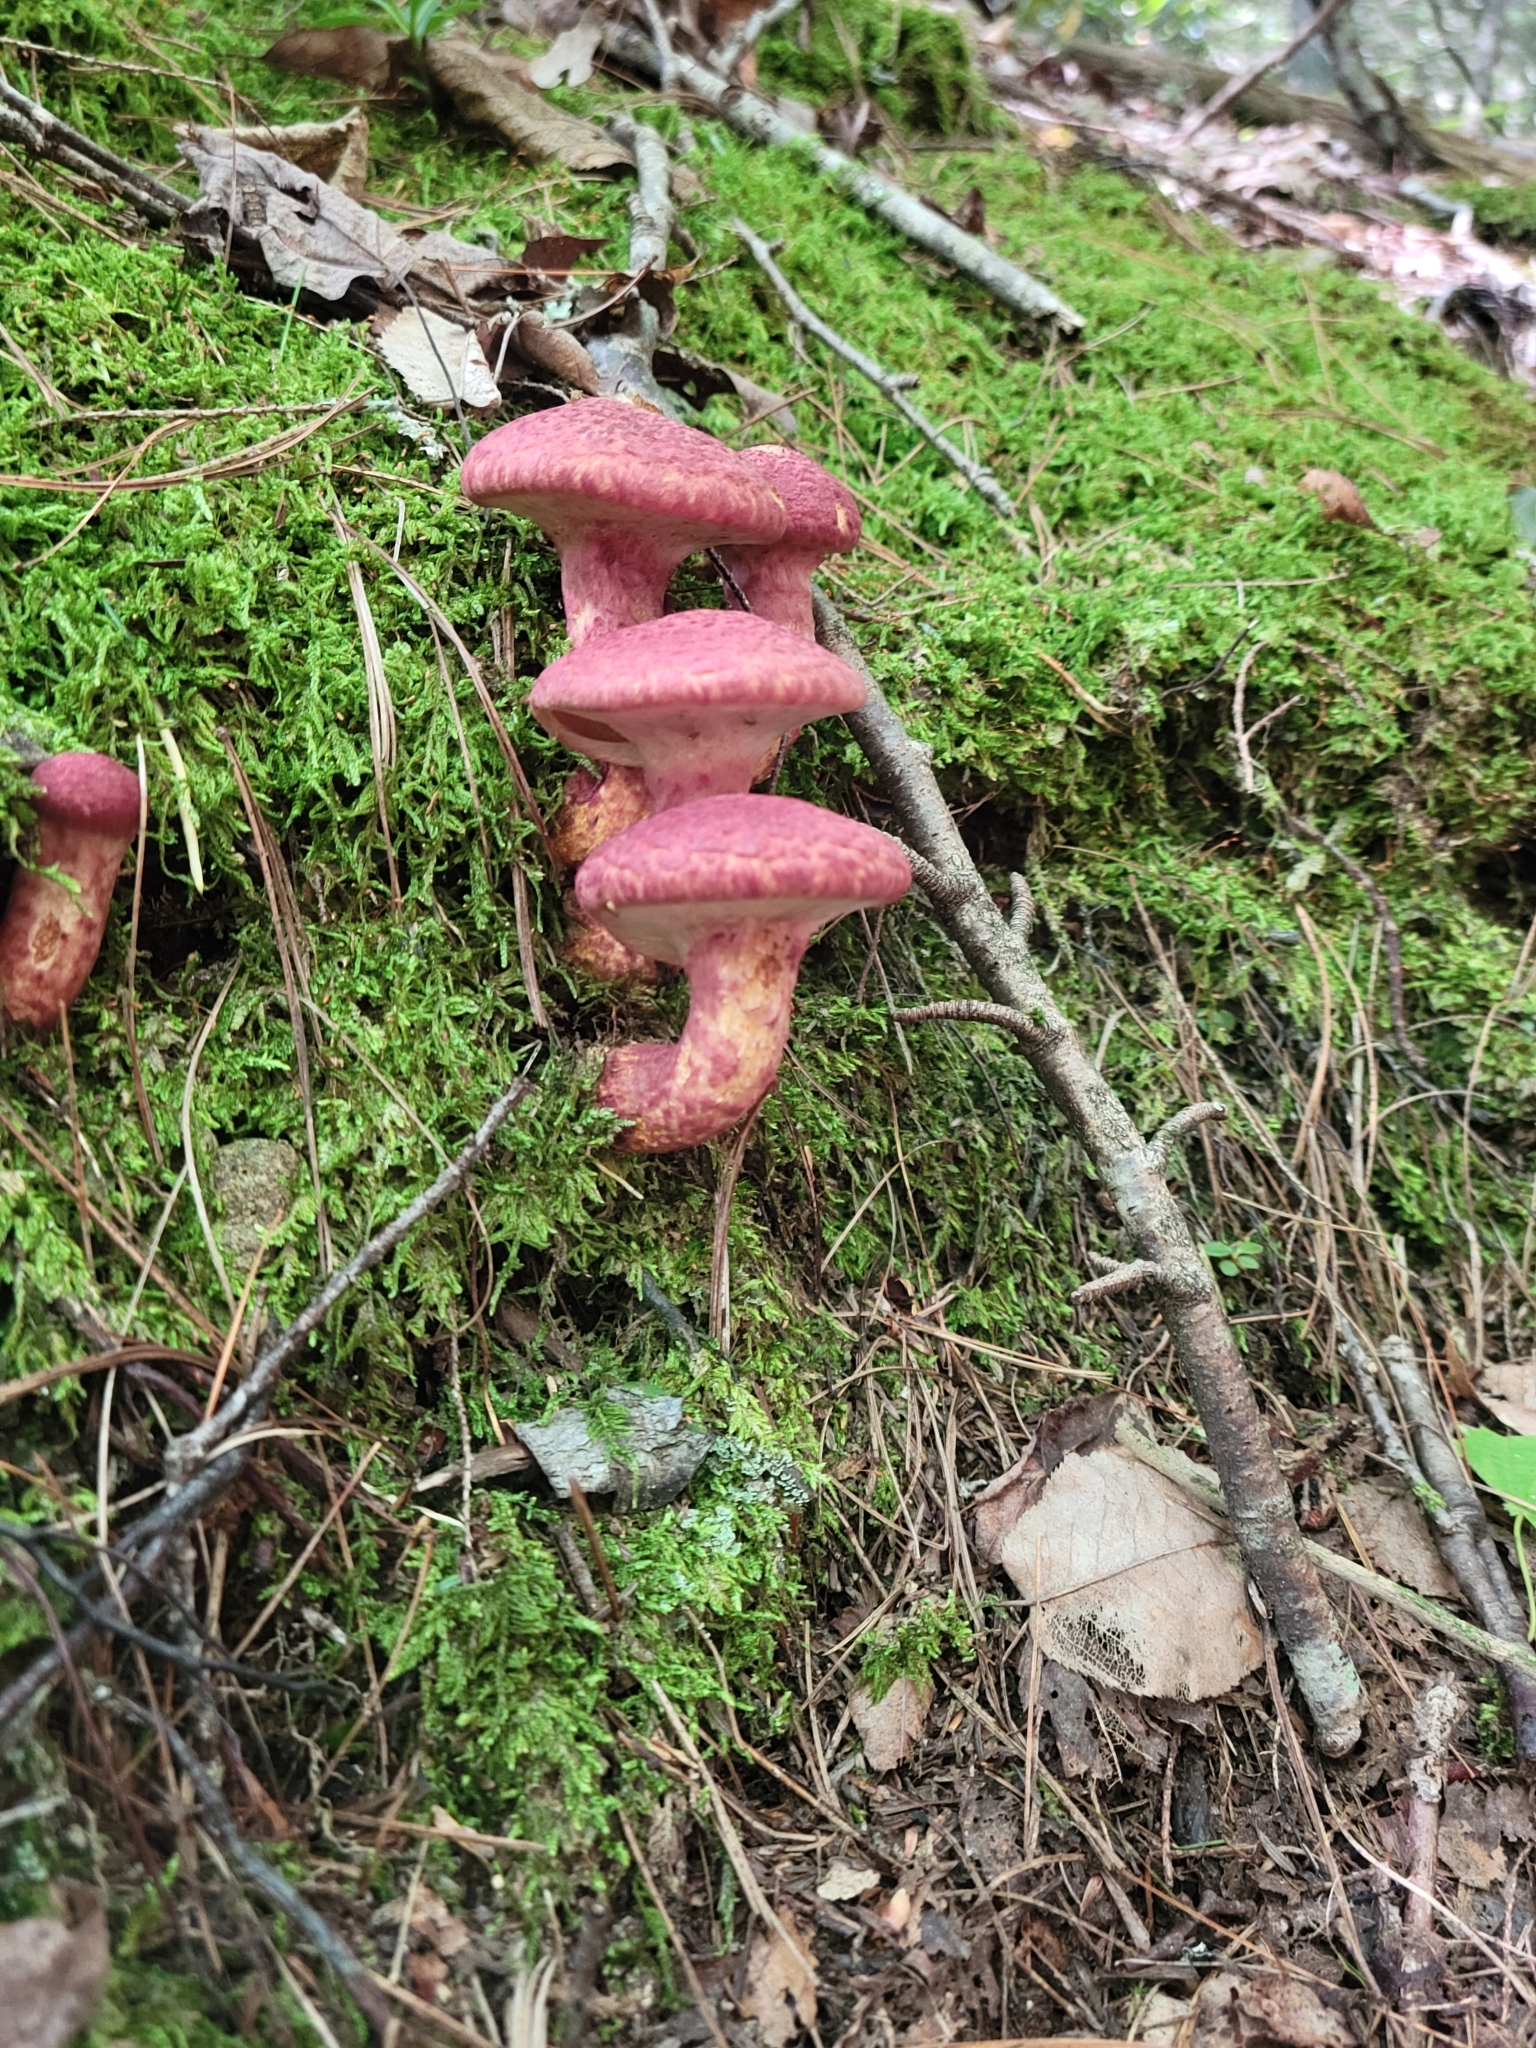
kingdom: Fungi
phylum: Basidiomycota
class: Agaricomycetes
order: Boletales
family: Suillaceae
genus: Suillus
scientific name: Suillus spraguei
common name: Painted suillus
